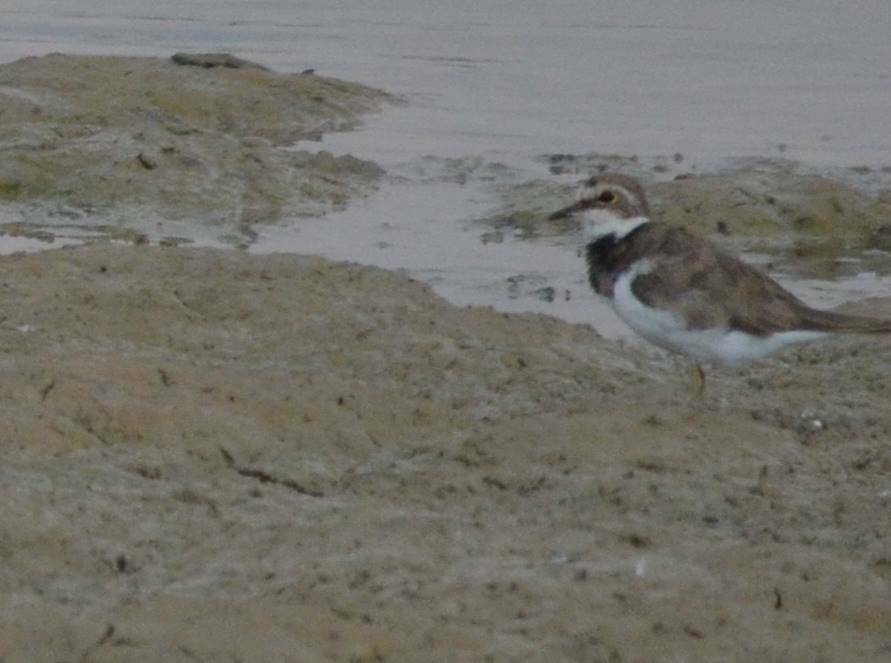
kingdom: Animalia
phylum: Chordata
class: Aves
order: Charadriiformes
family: Charadriidae
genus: Charadrius
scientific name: Charadrius dubius
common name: Little ringed plover
